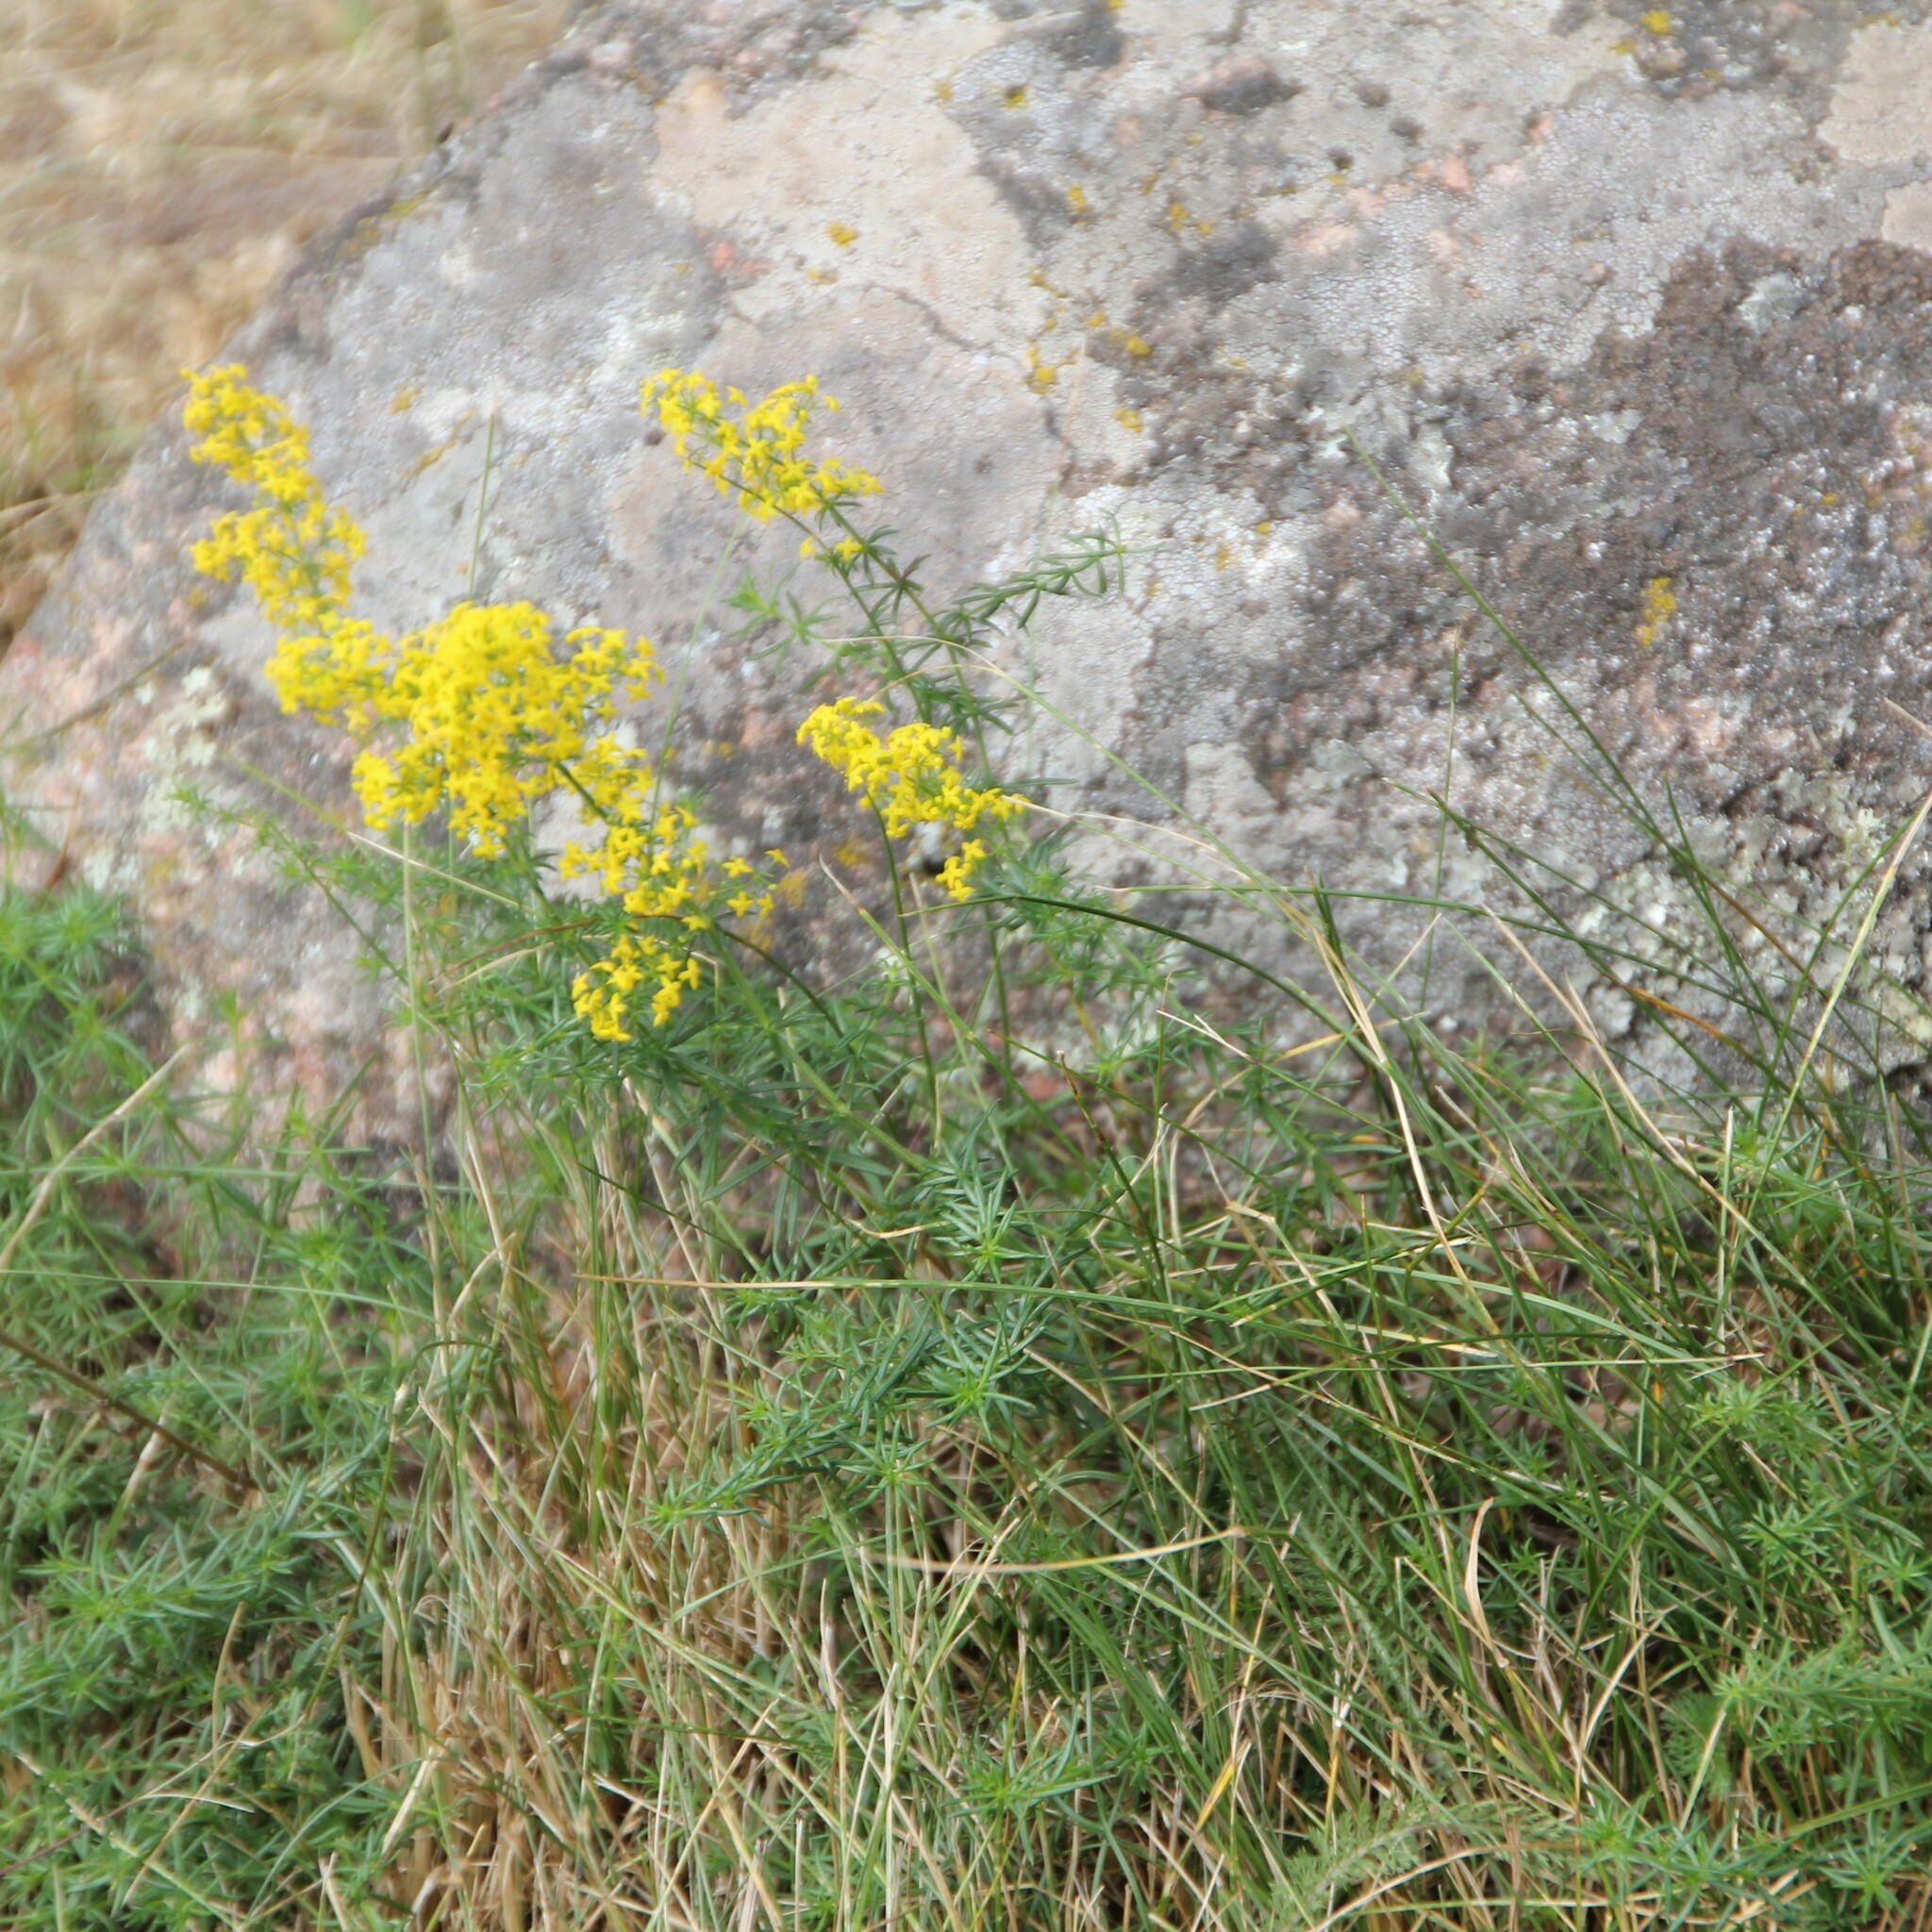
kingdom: Plantae
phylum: Tracheophyta
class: Magnoliopsida
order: Gentianales
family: Rubiaceae
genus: Galium
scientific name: Galium verum
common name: Lady's bedstraw
